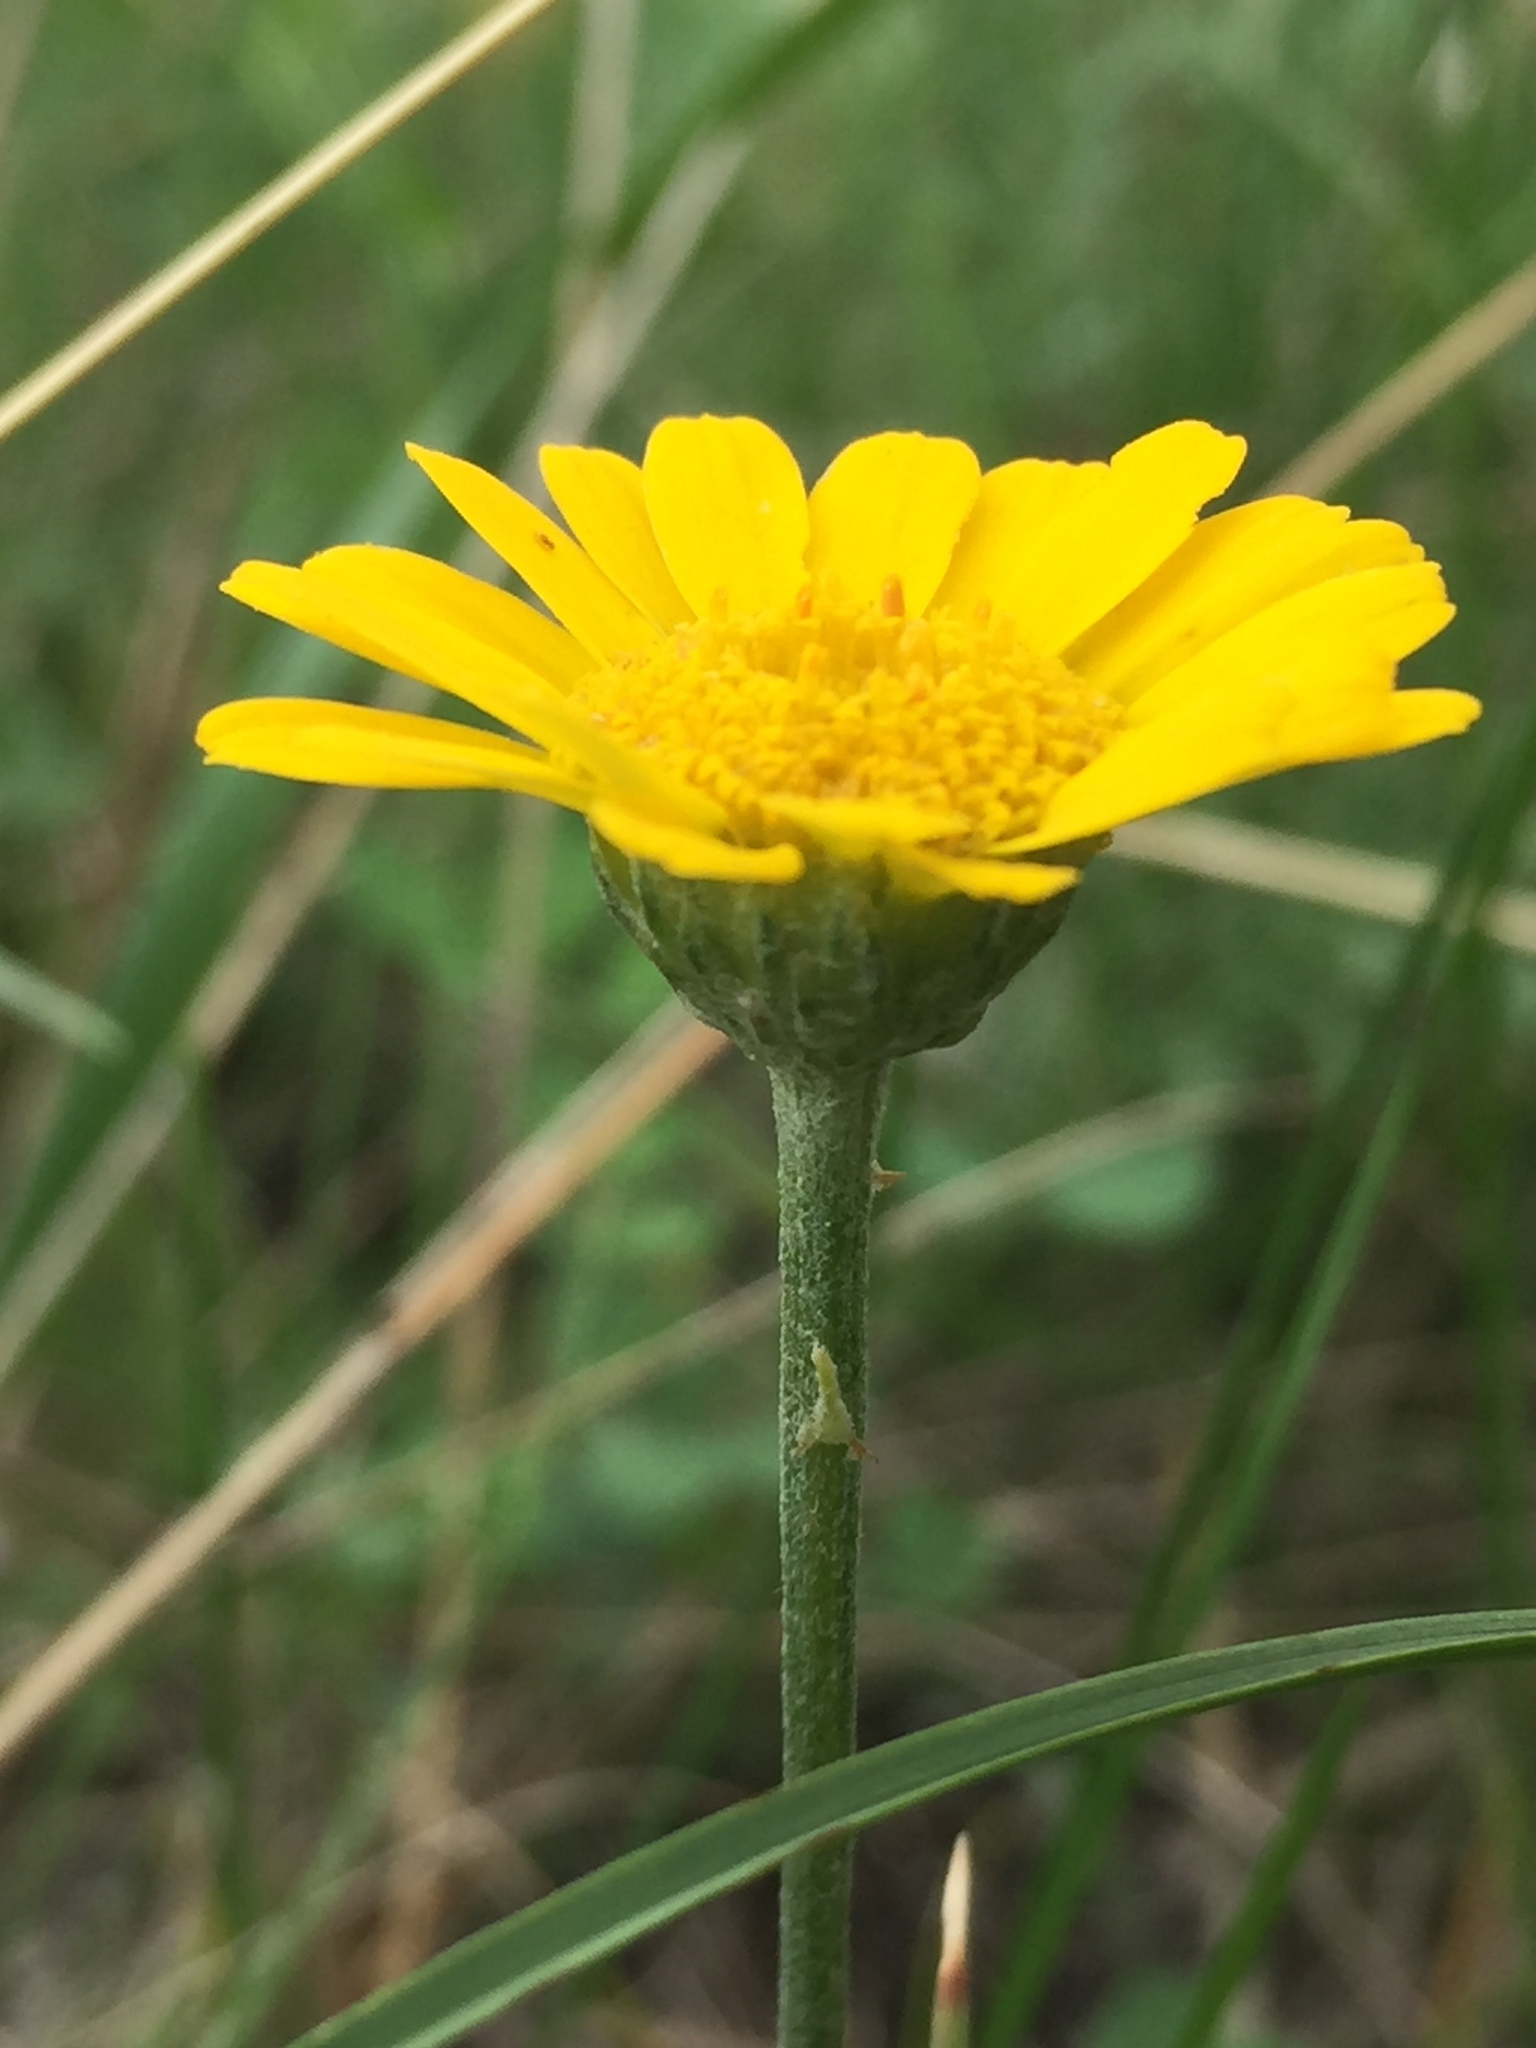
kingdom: Plantae
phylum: Tracheophyta
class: Magnoliopsida
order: Asterales
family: Asteraceae
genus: Cota
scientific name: Cota tinctoria
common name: Golden chamomile
